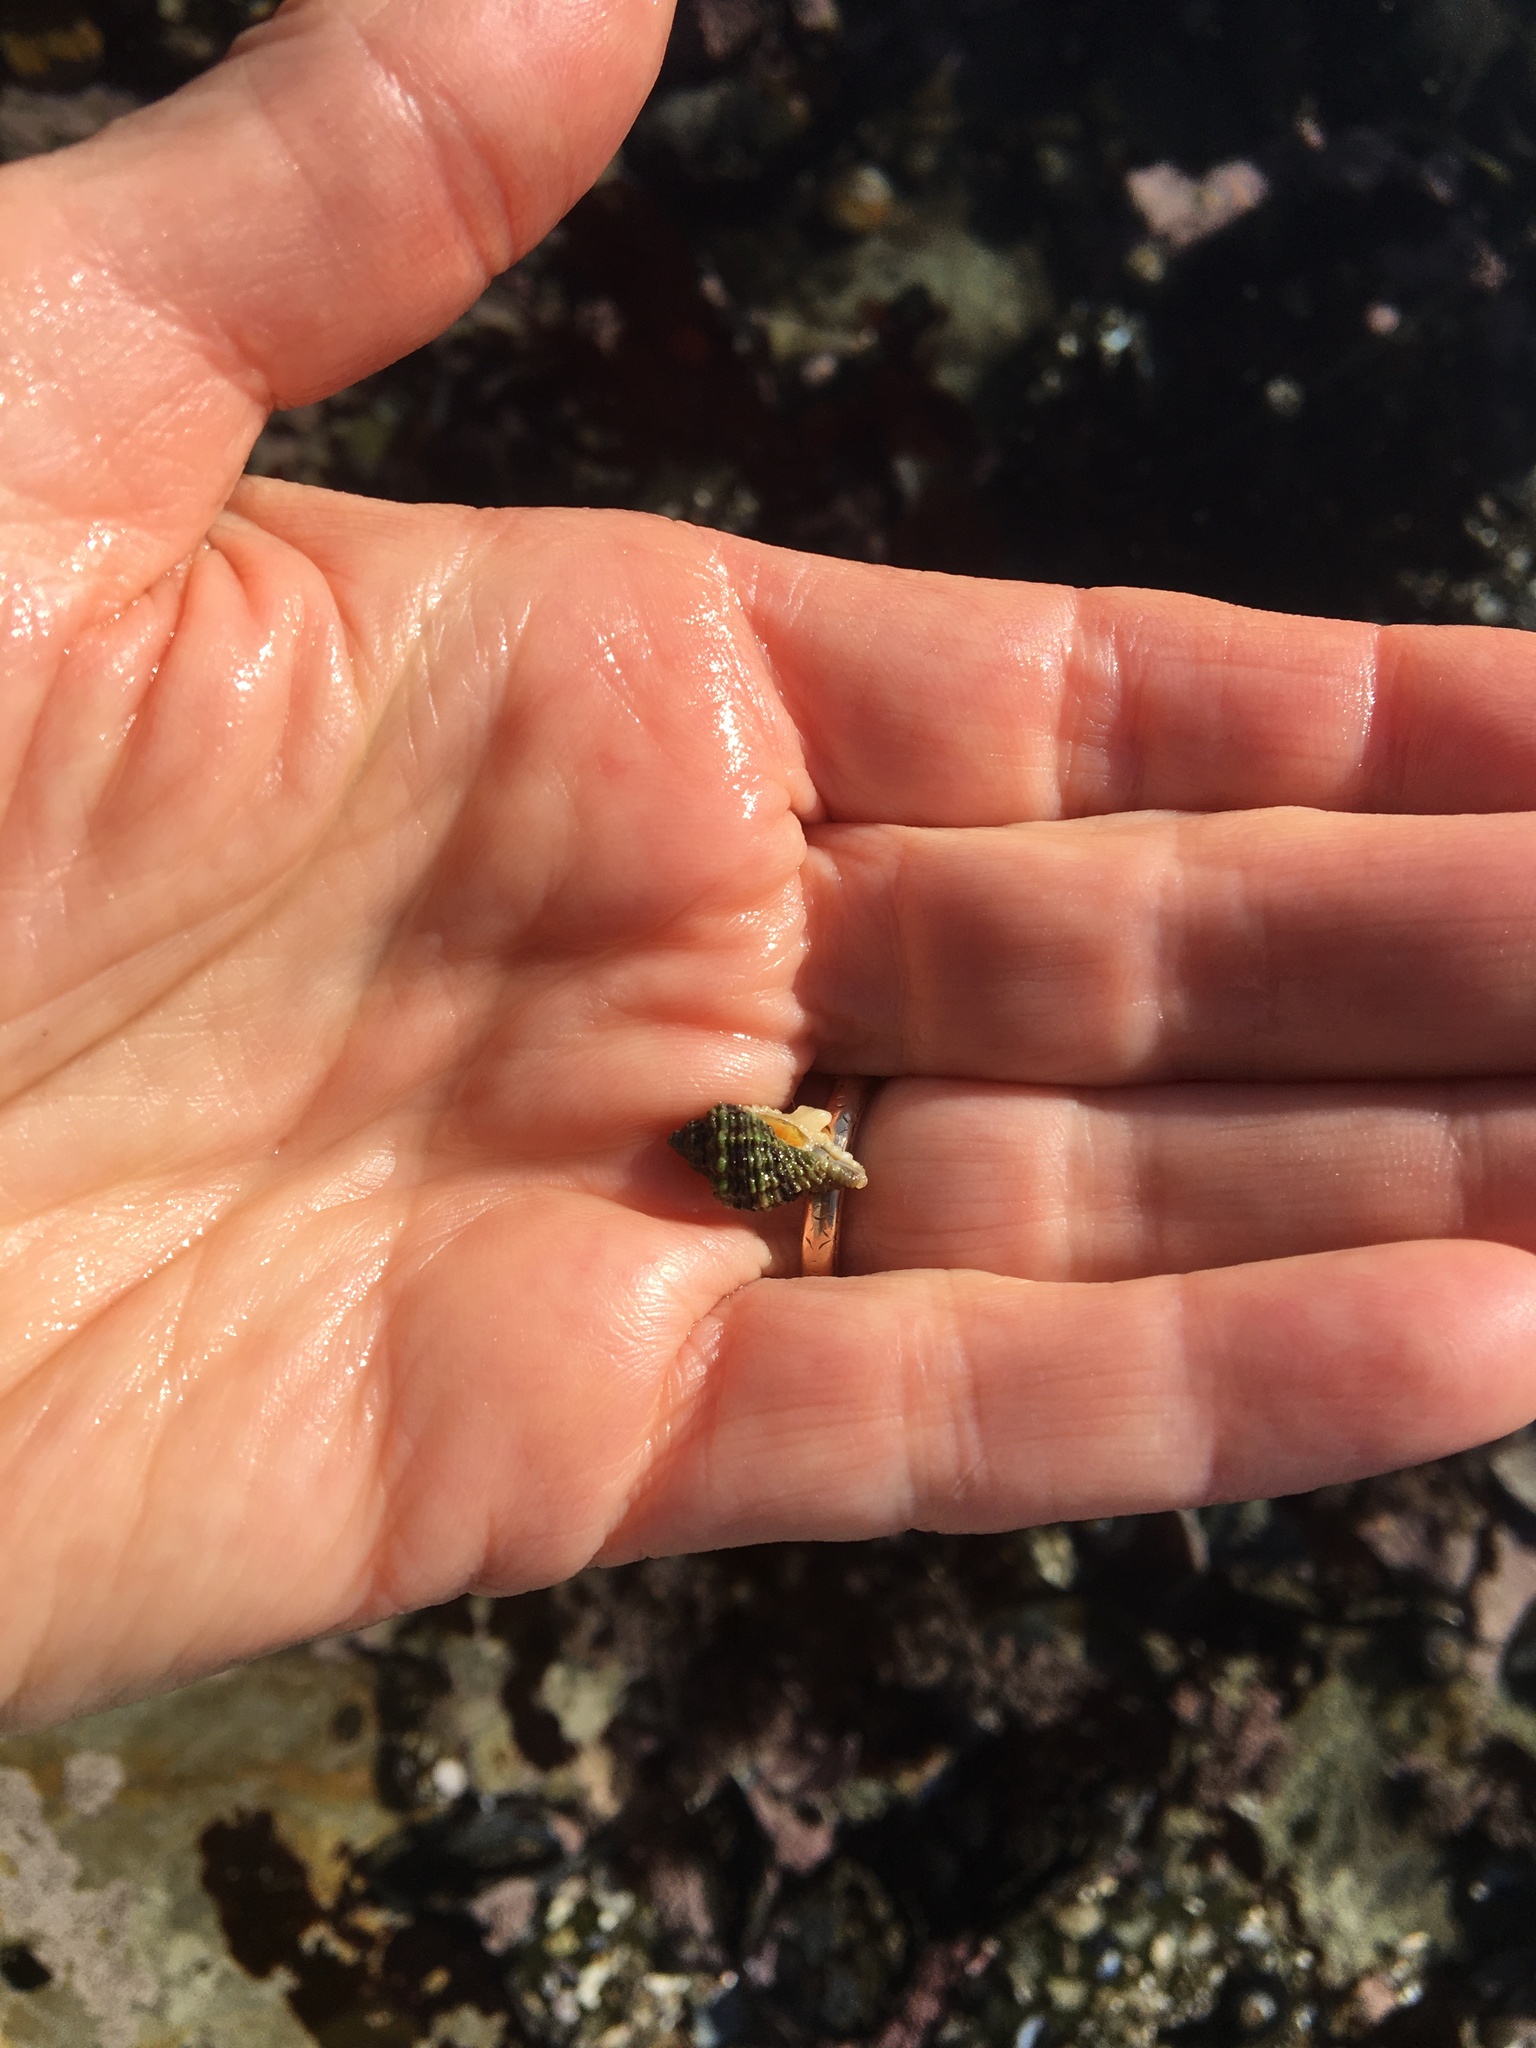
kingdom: Animalia
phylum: Mollusca
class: Gastropoda
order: Neogastropoda
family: Muricidae
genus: Paciocinebrina
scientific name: Paciocinebrina circumtexta
